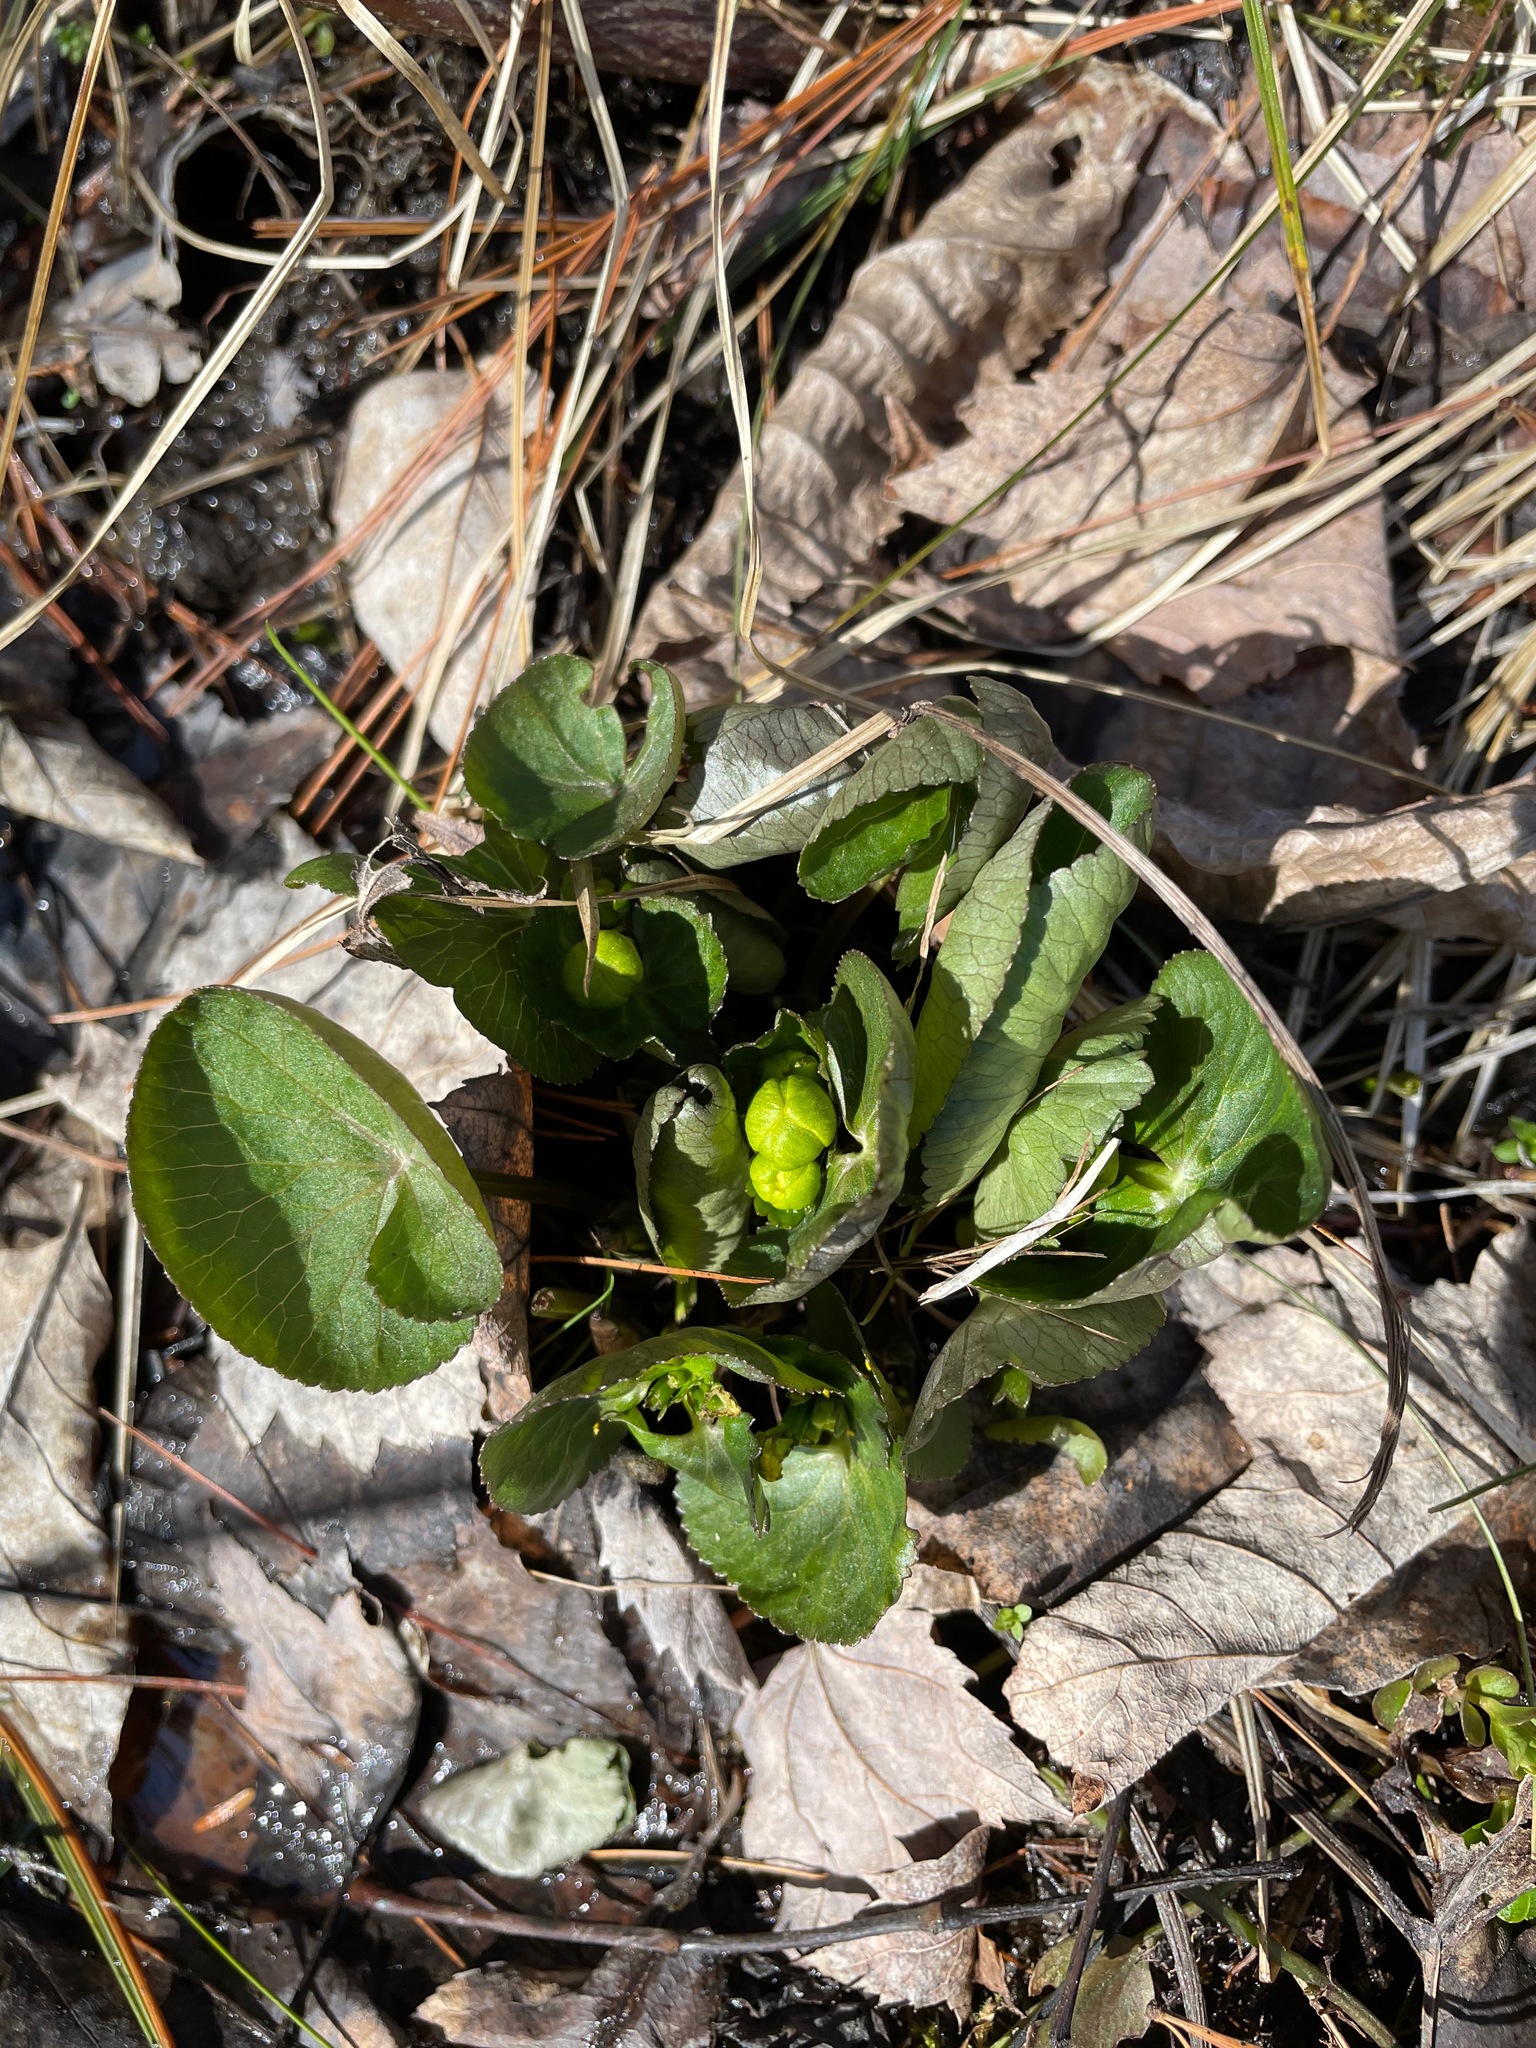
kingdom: Plantae
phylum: Tracheophyta
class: Magnoliopsida
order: Ranunculales
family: Ranunculaceae
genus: Caltha
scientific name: Caltha palustris
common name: Marsh marigold
